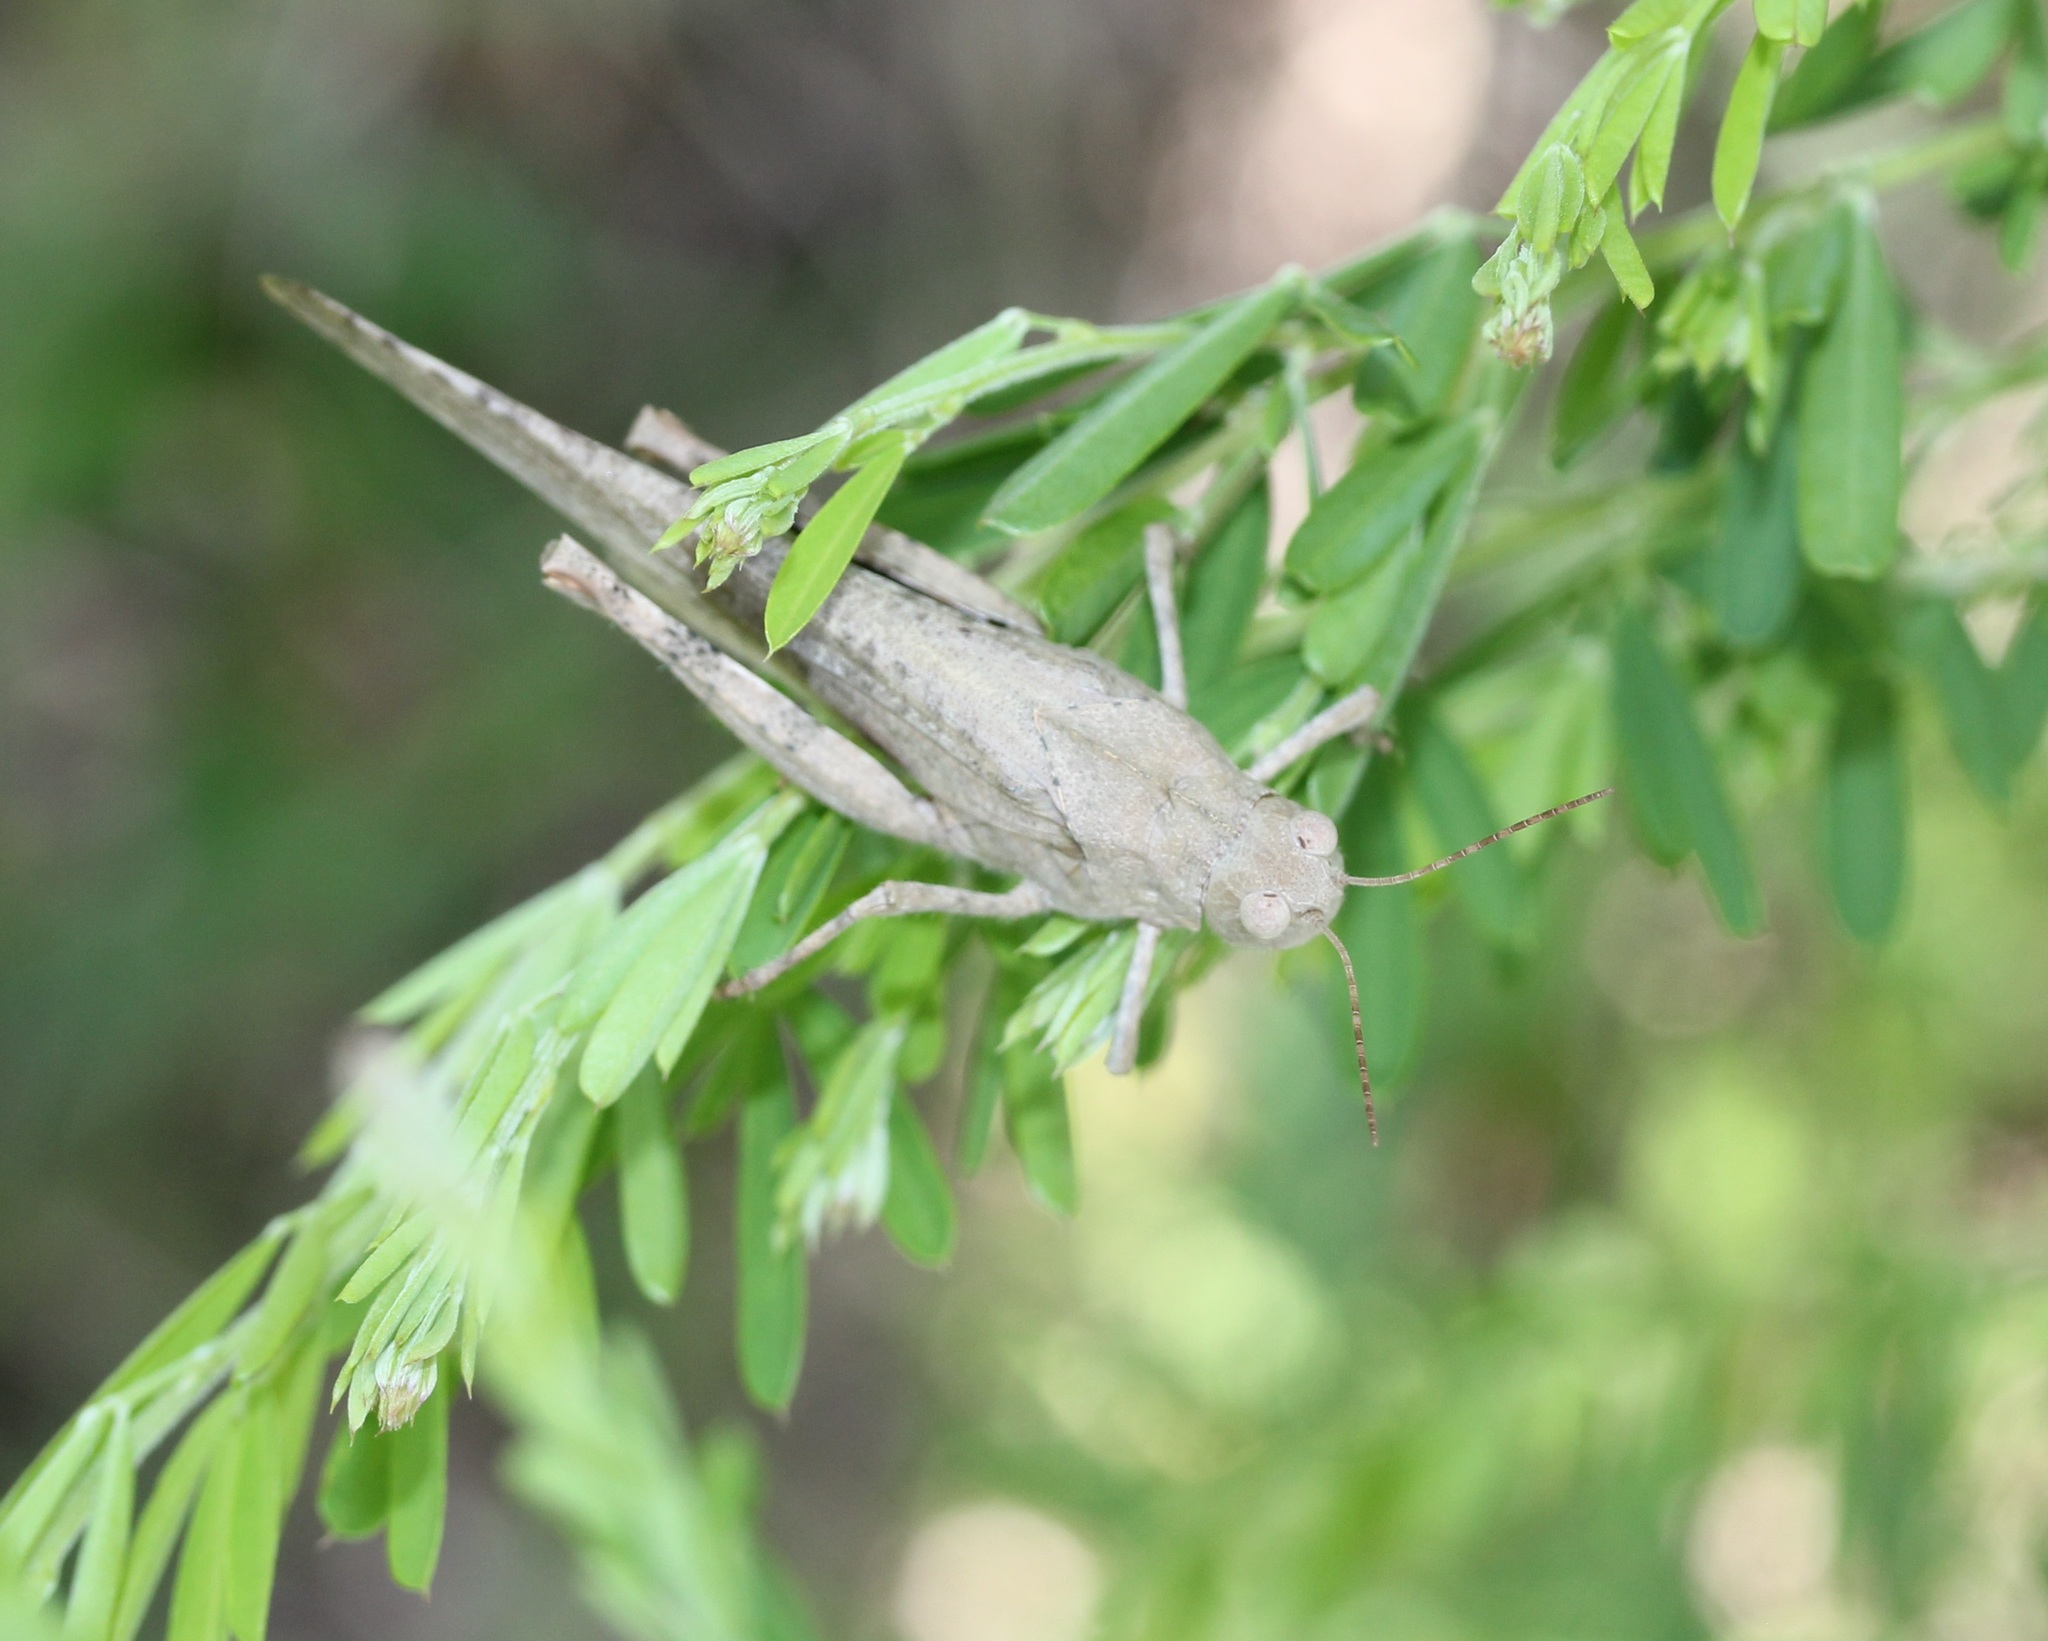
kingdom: Animalia
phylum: Arthropoda
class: Insecta
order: Orthoptera
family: Acrididae
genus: Dissosteira
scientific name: Dissosteira carolina
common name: Carolina grasshopper
